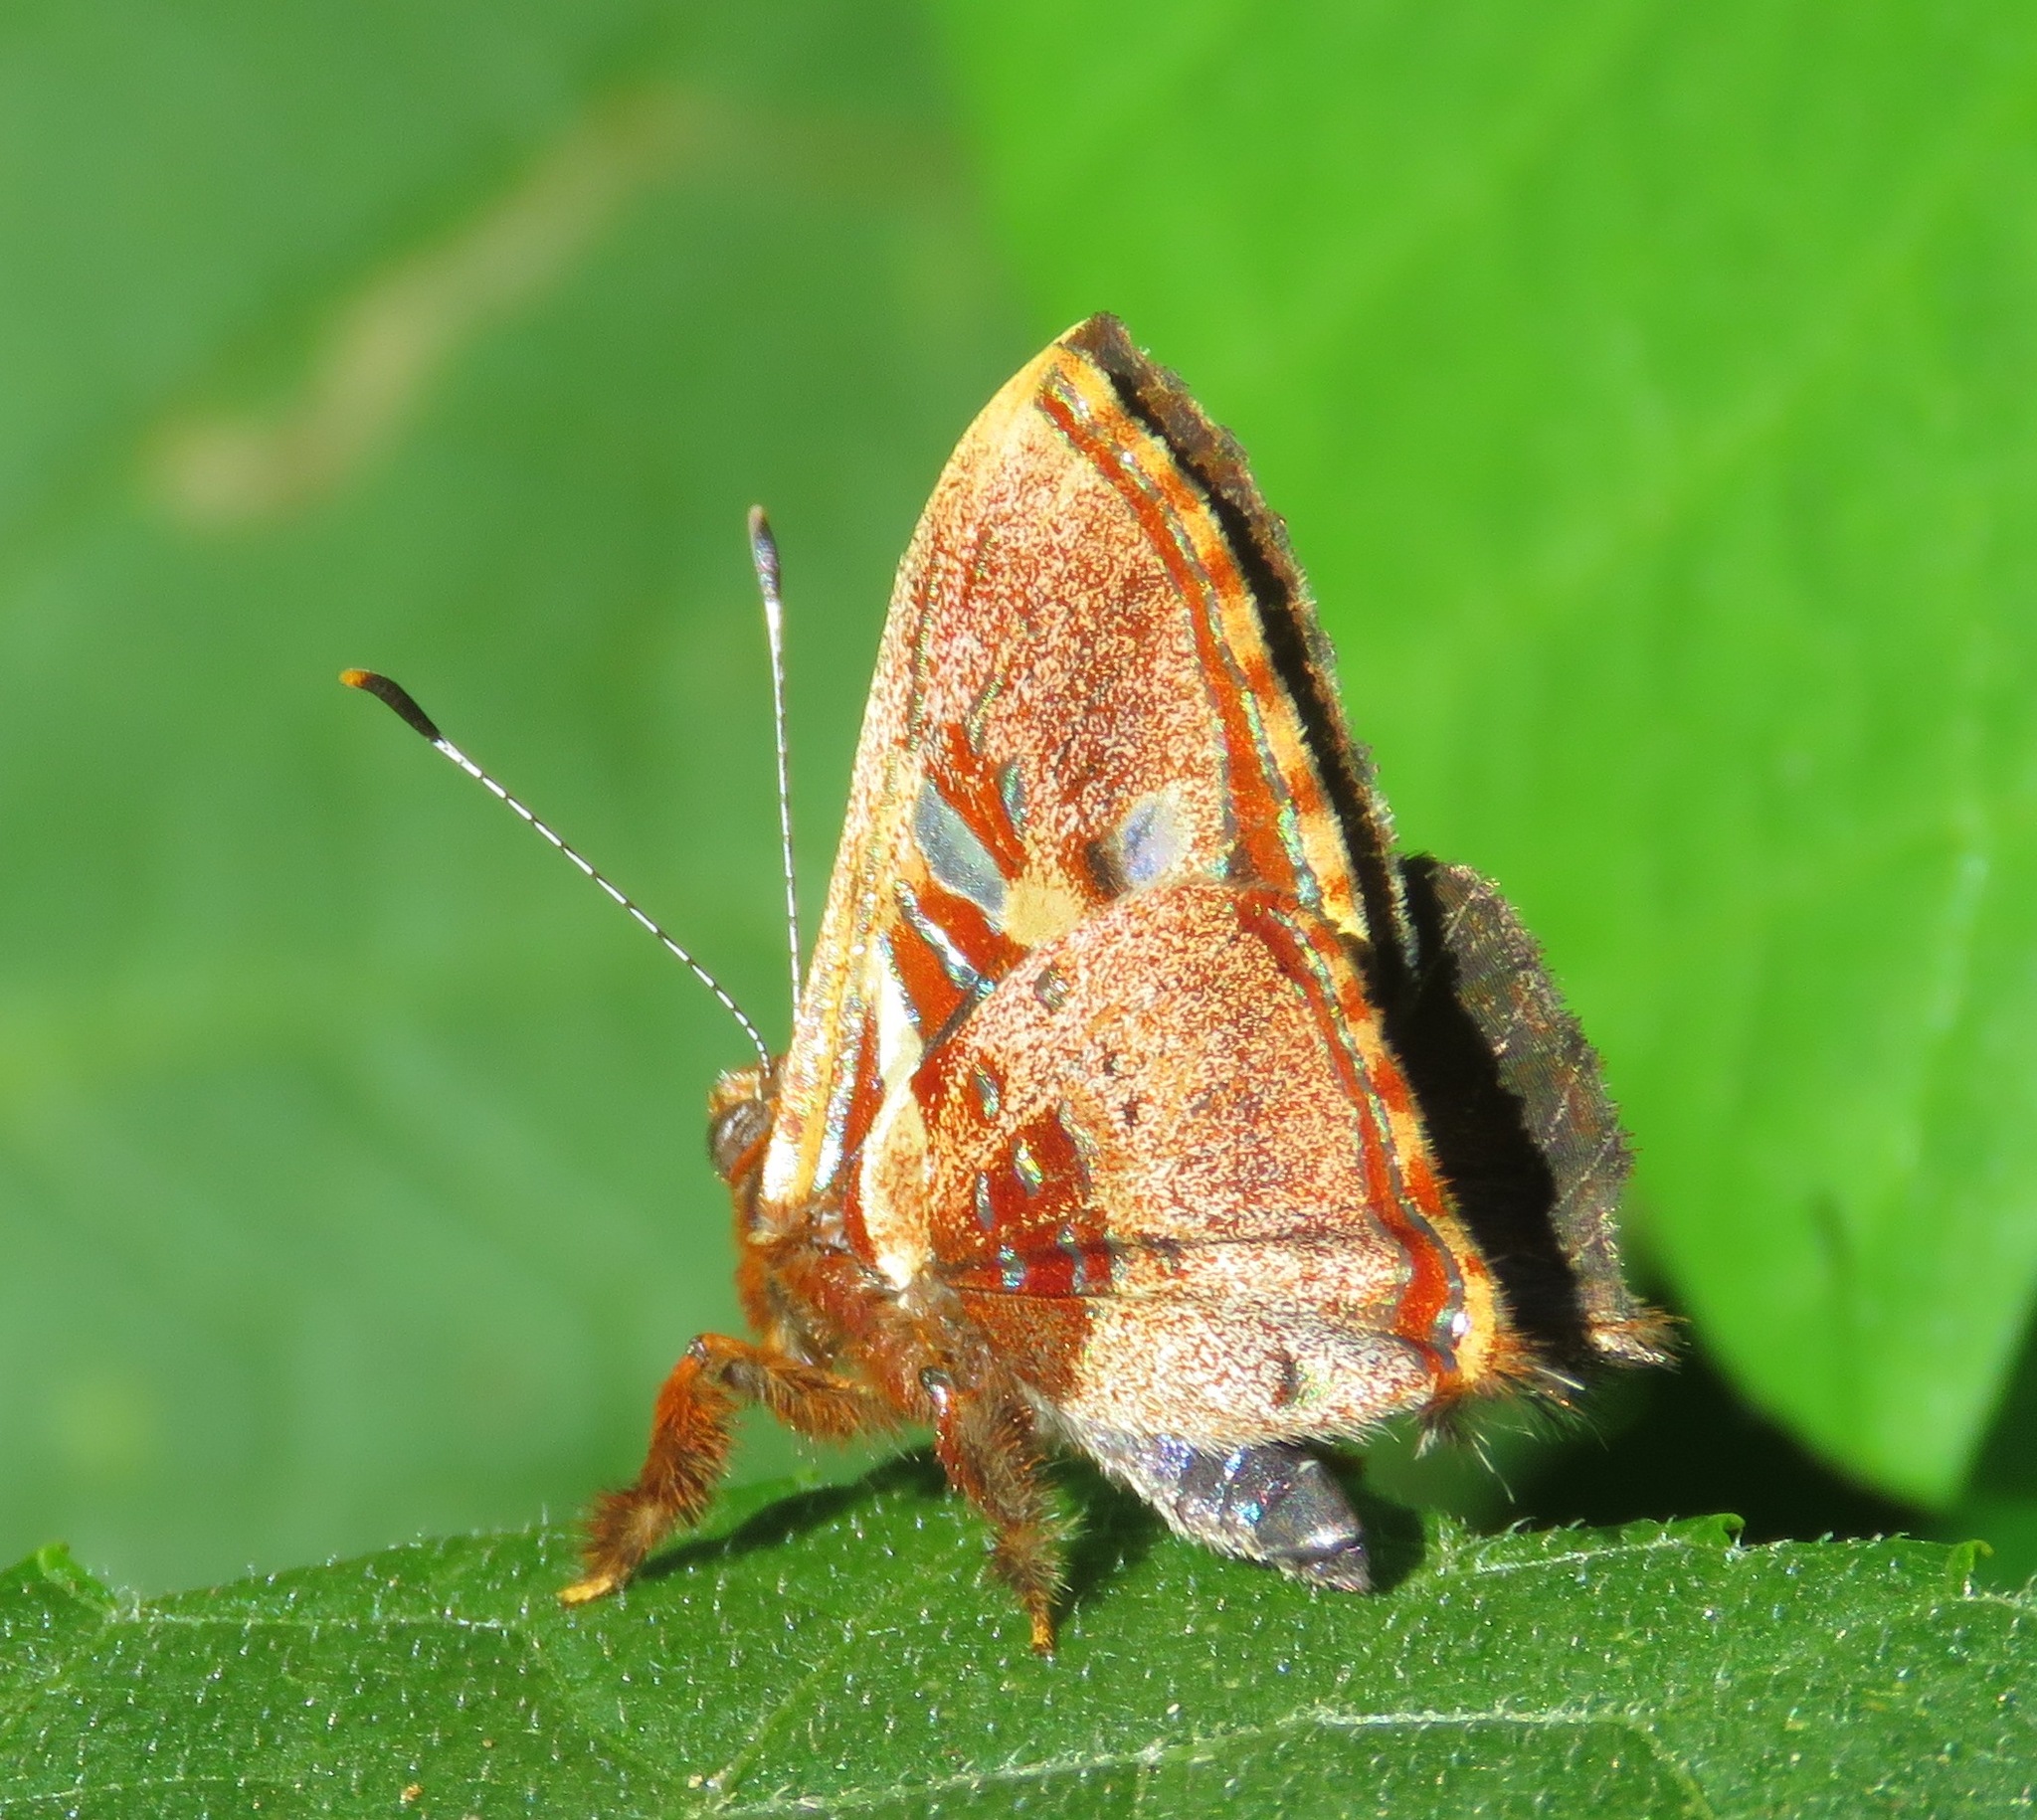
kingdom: Animalia
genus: Anteros
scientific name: Anteros carausius
